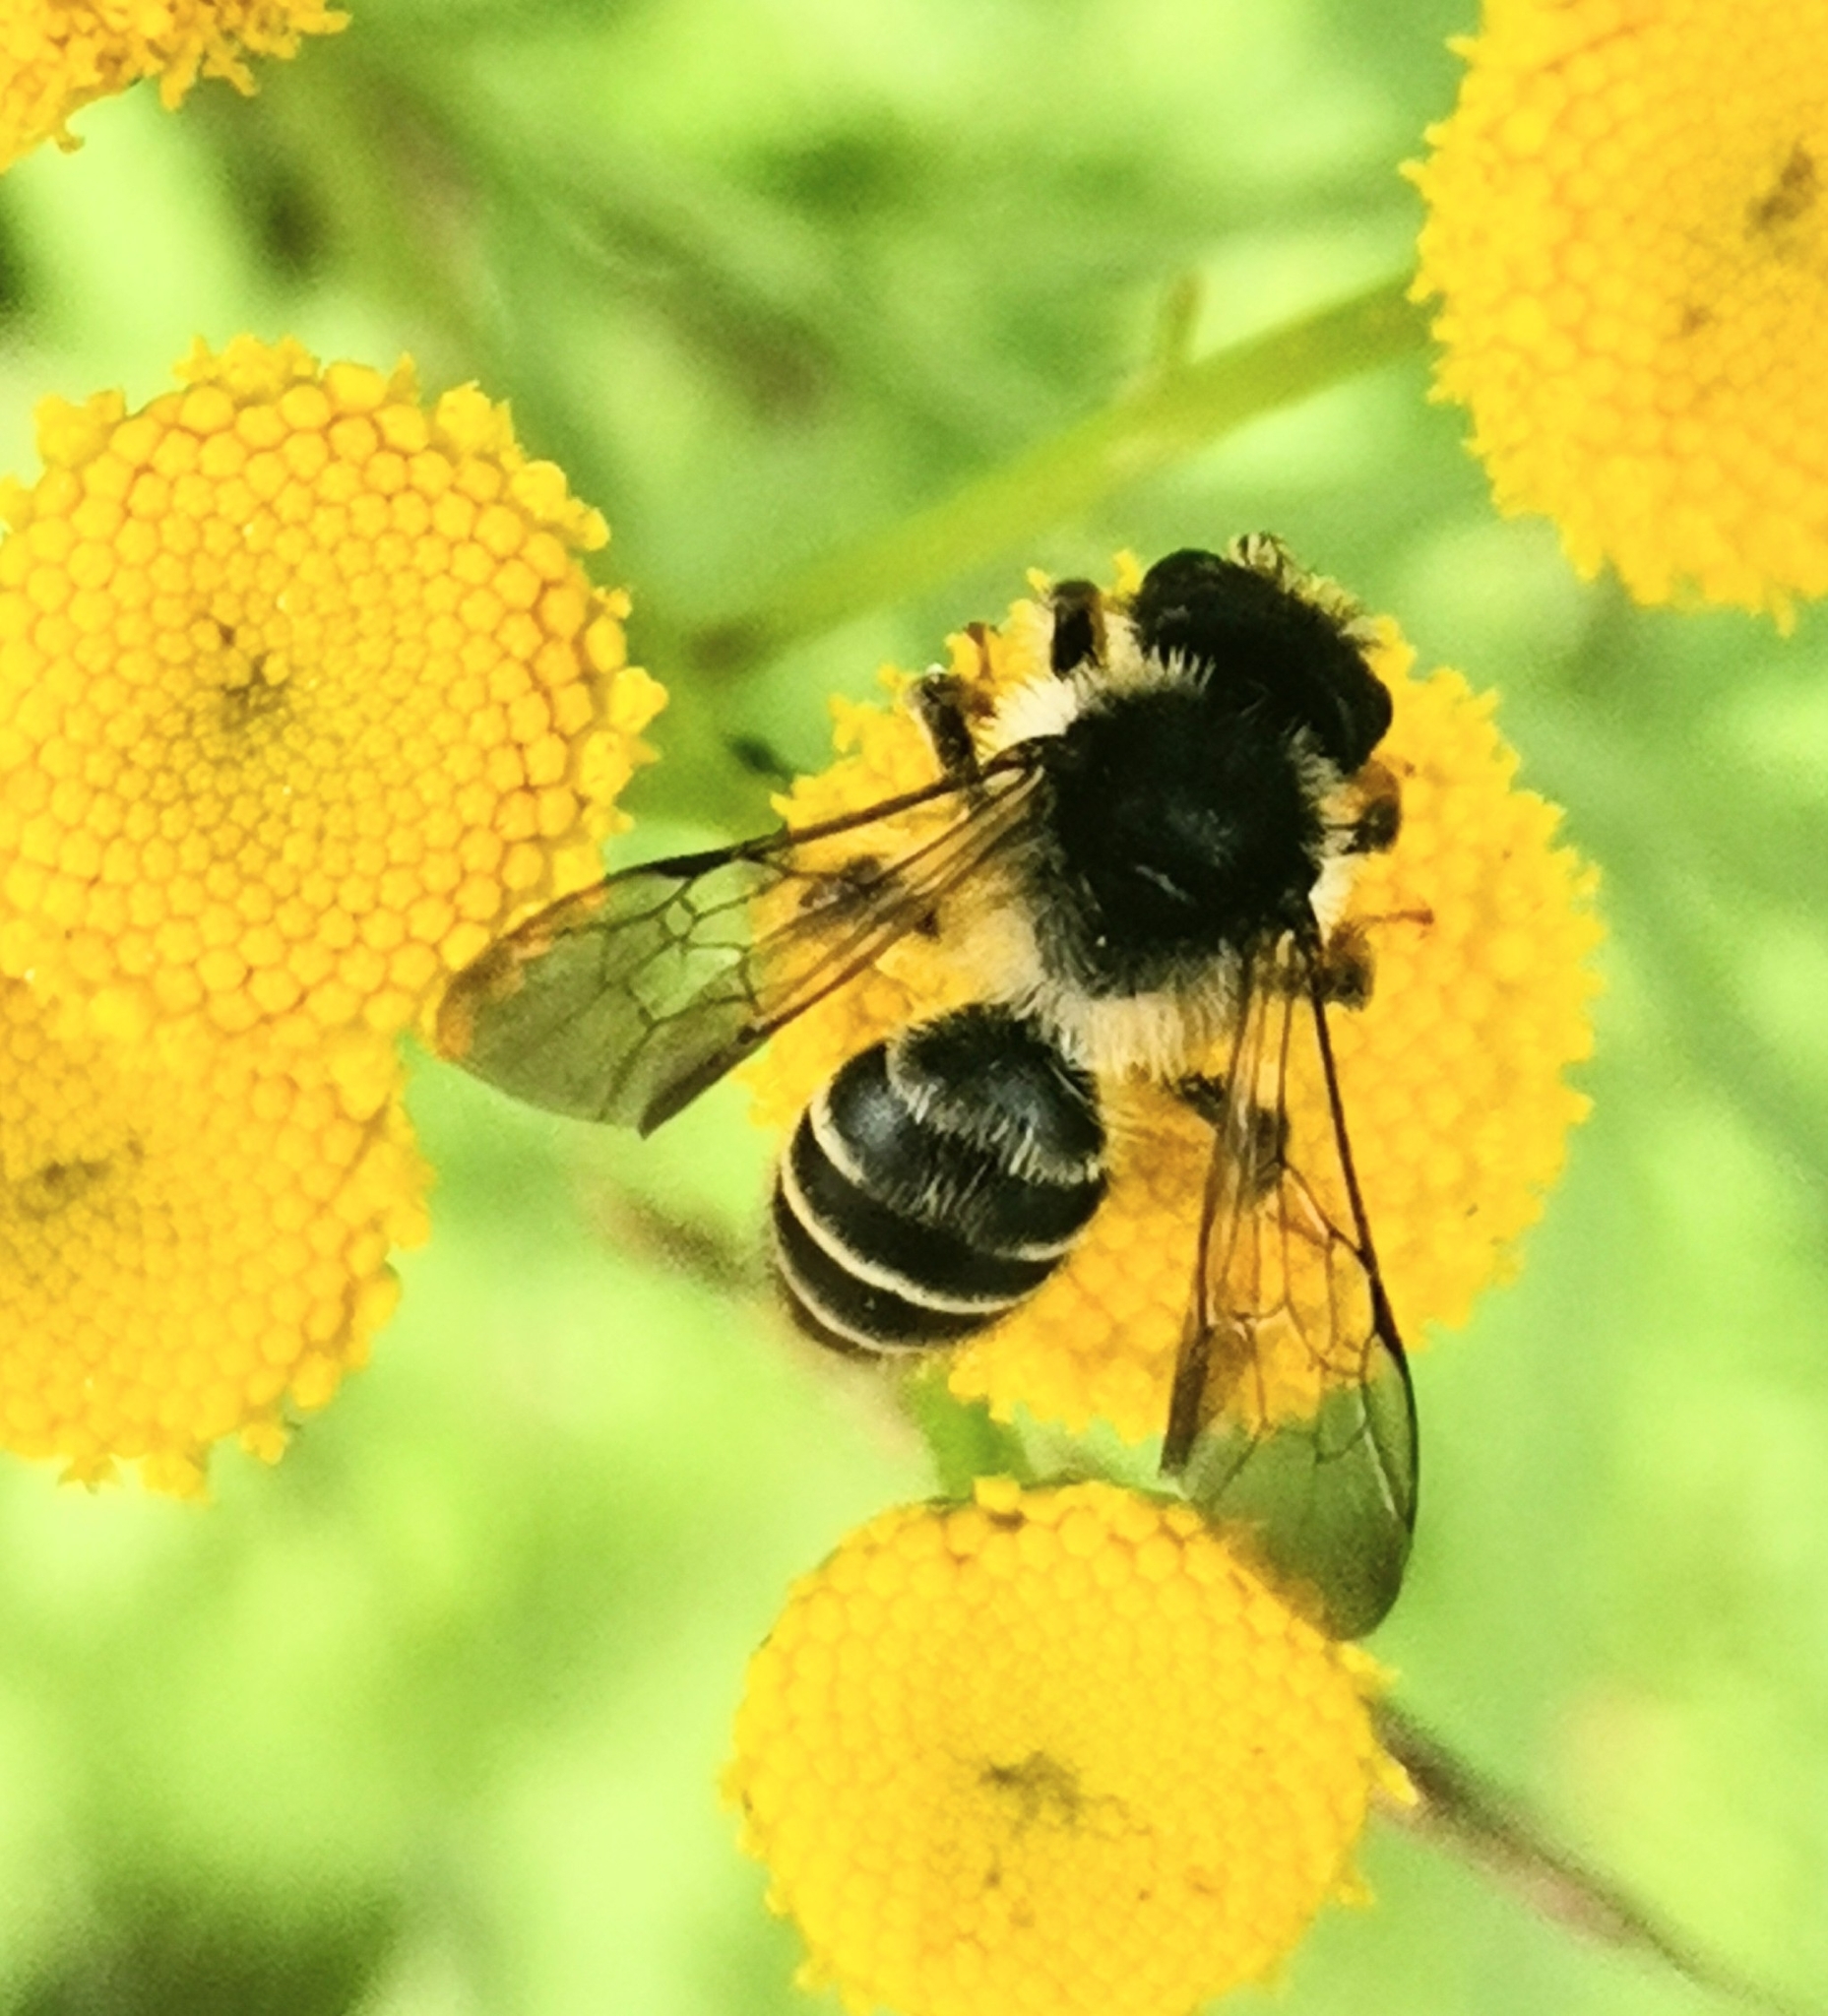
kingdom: Animalia
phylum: Arthropoda
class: Insecta
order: Hymenoptera
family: Andrenidae
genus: Andrena
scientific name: Andrena denticulata
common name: Grey-banded mining bee
